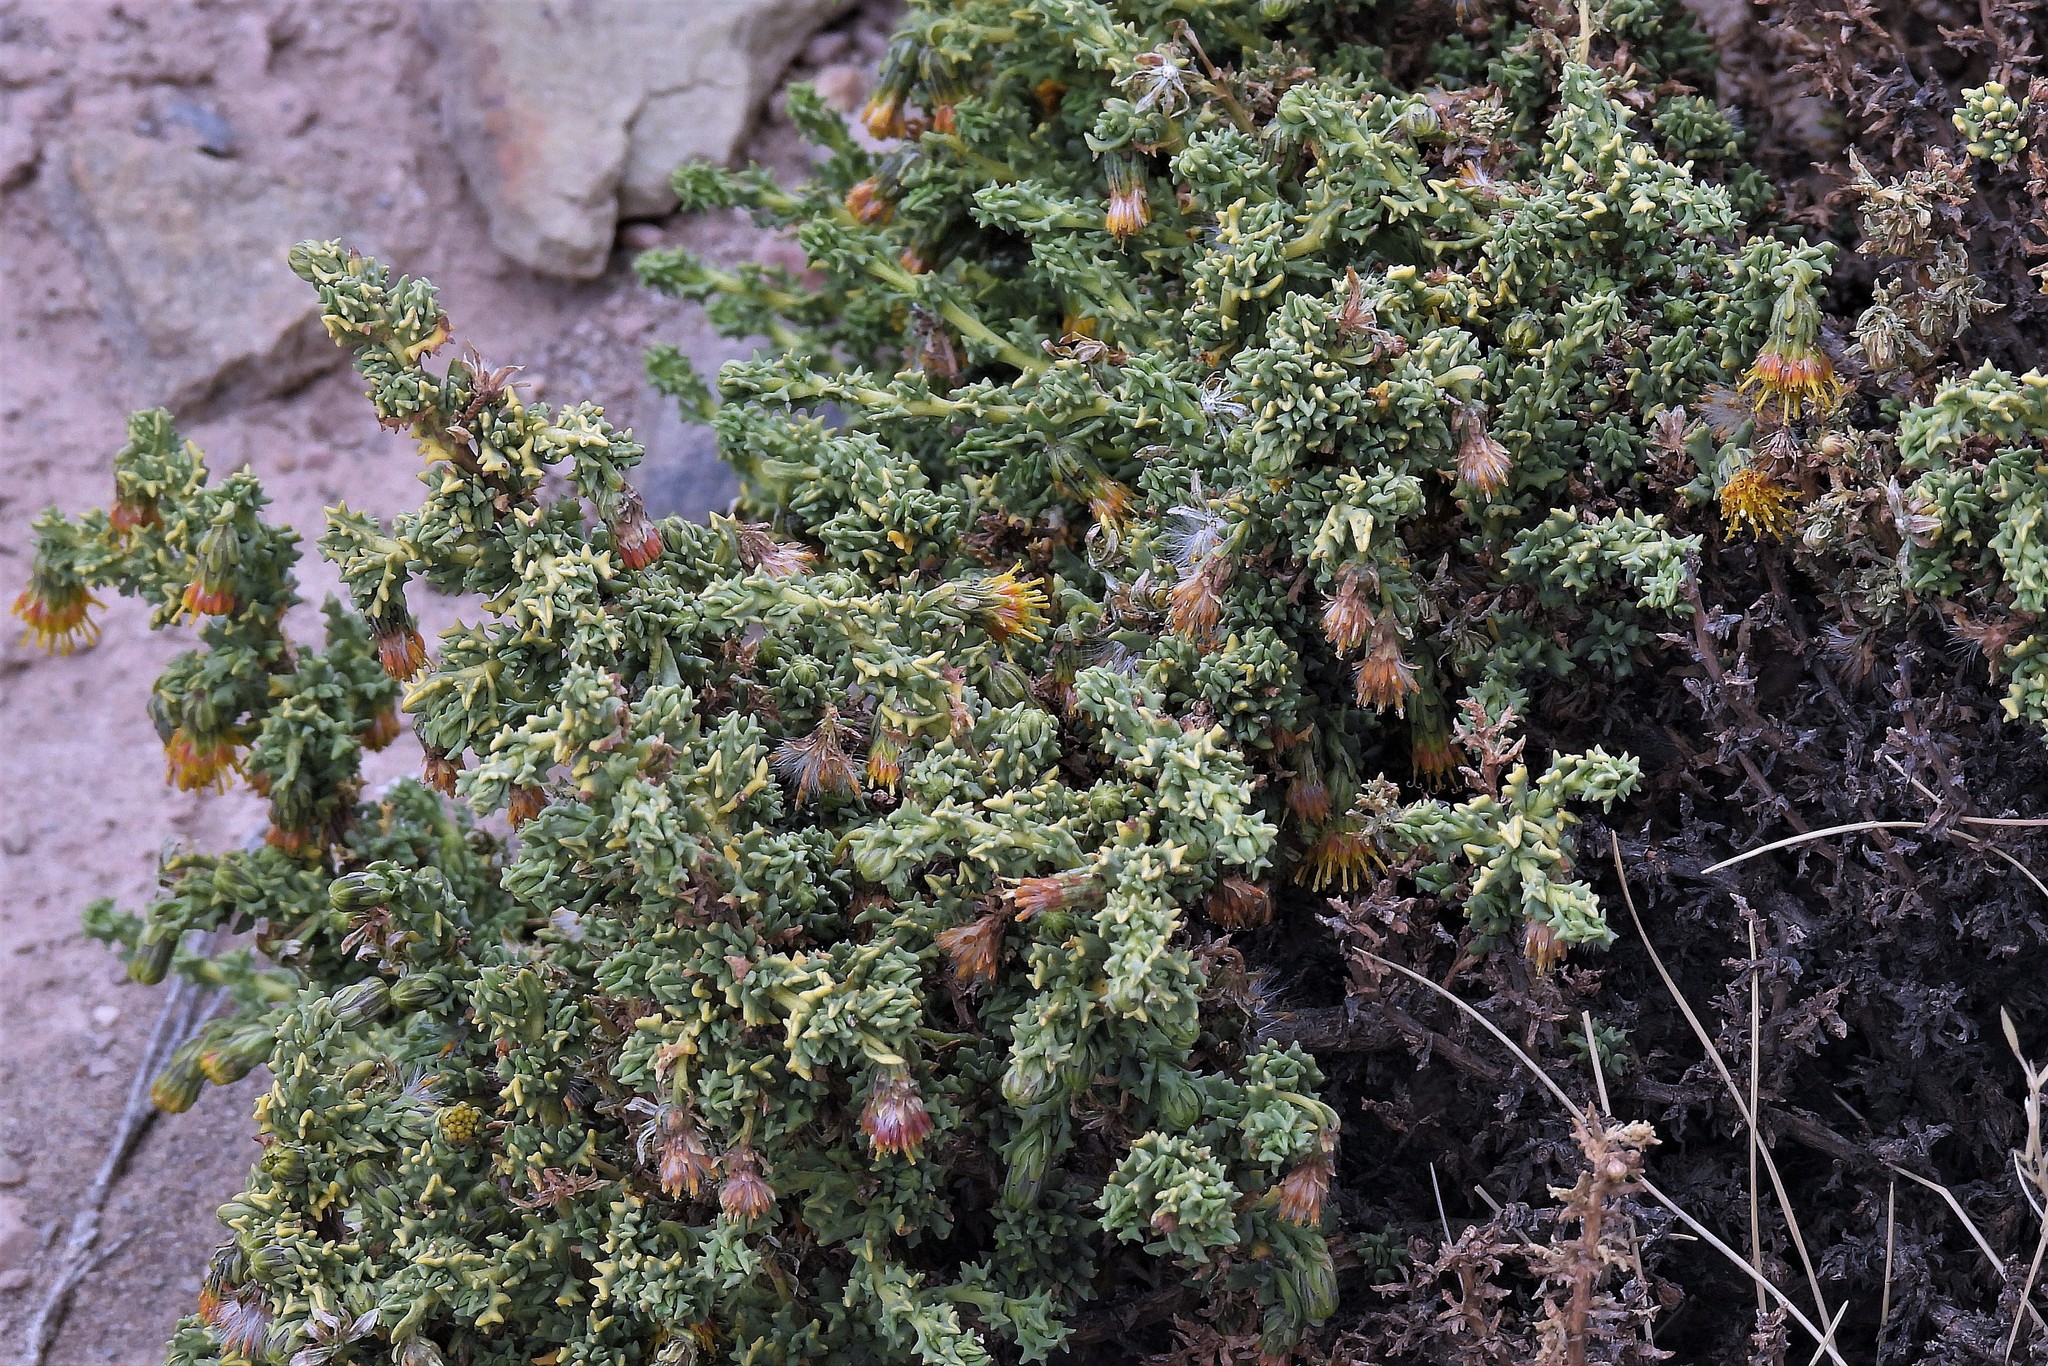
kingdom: Plantae
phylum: Tracheophyta
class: Magnoliopsida
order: Asterales
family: Asteraceae
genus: Senecio
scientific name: Senecio nutans
